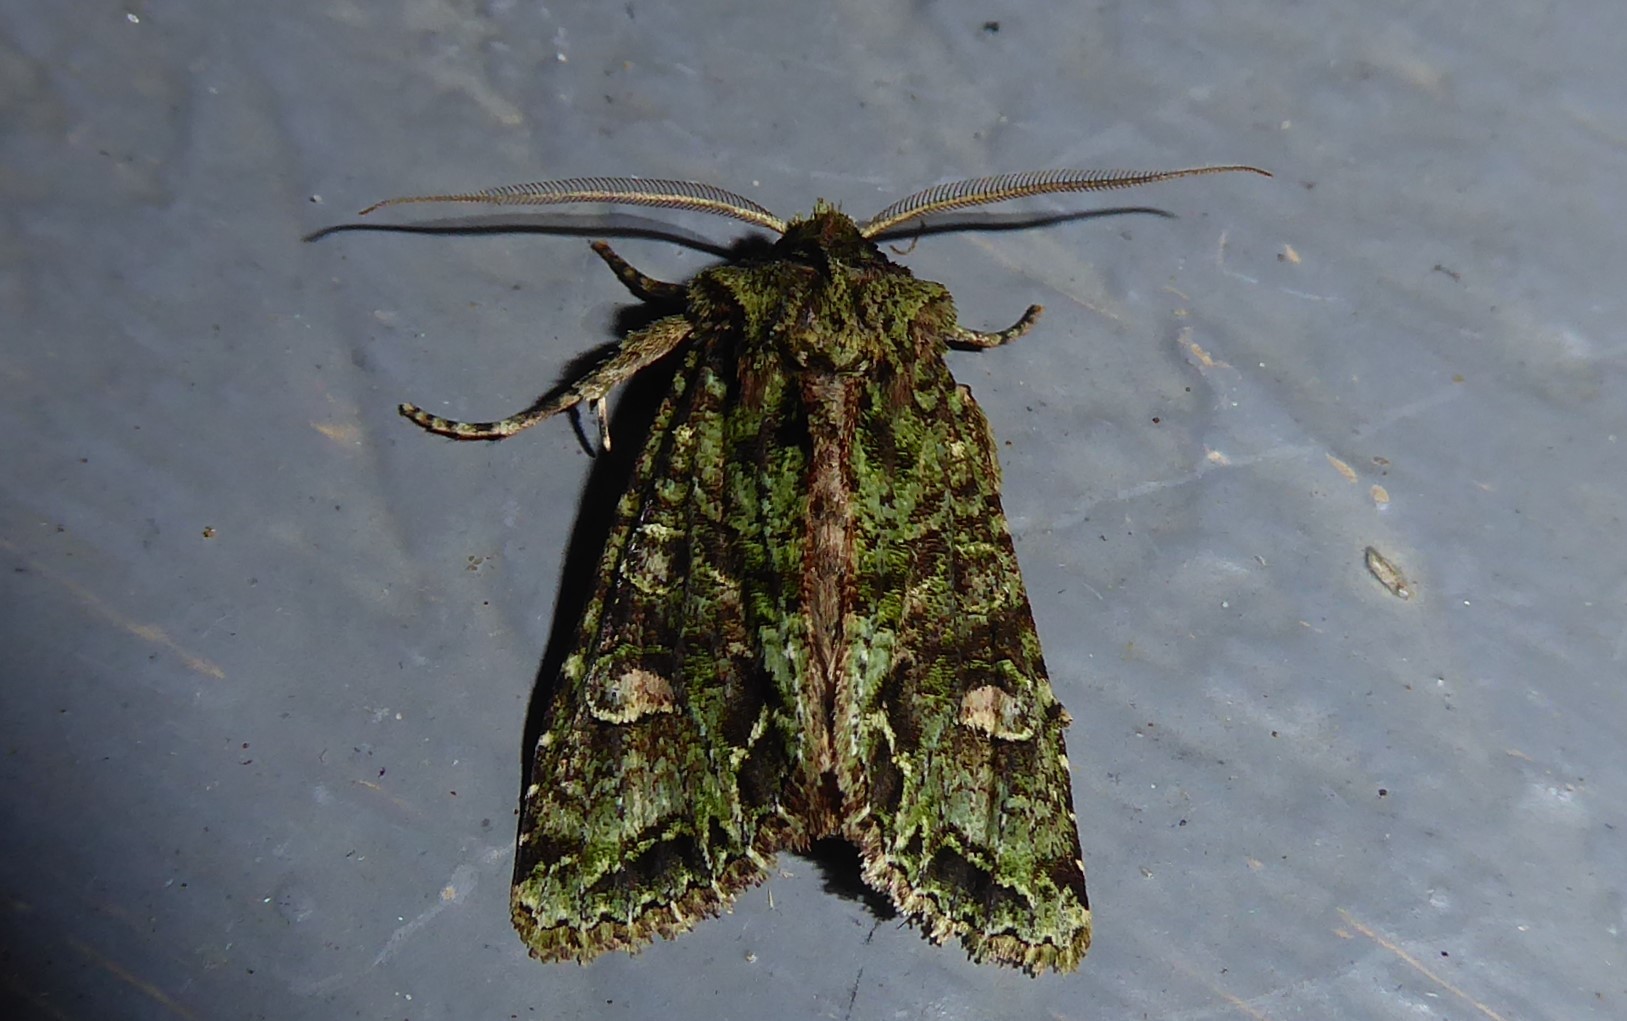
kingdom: Animalia
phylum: Arthropoda
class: Insecta
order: Lepidoptera
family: Noctuidae
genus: Ichneutica
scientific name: Ichneutica
